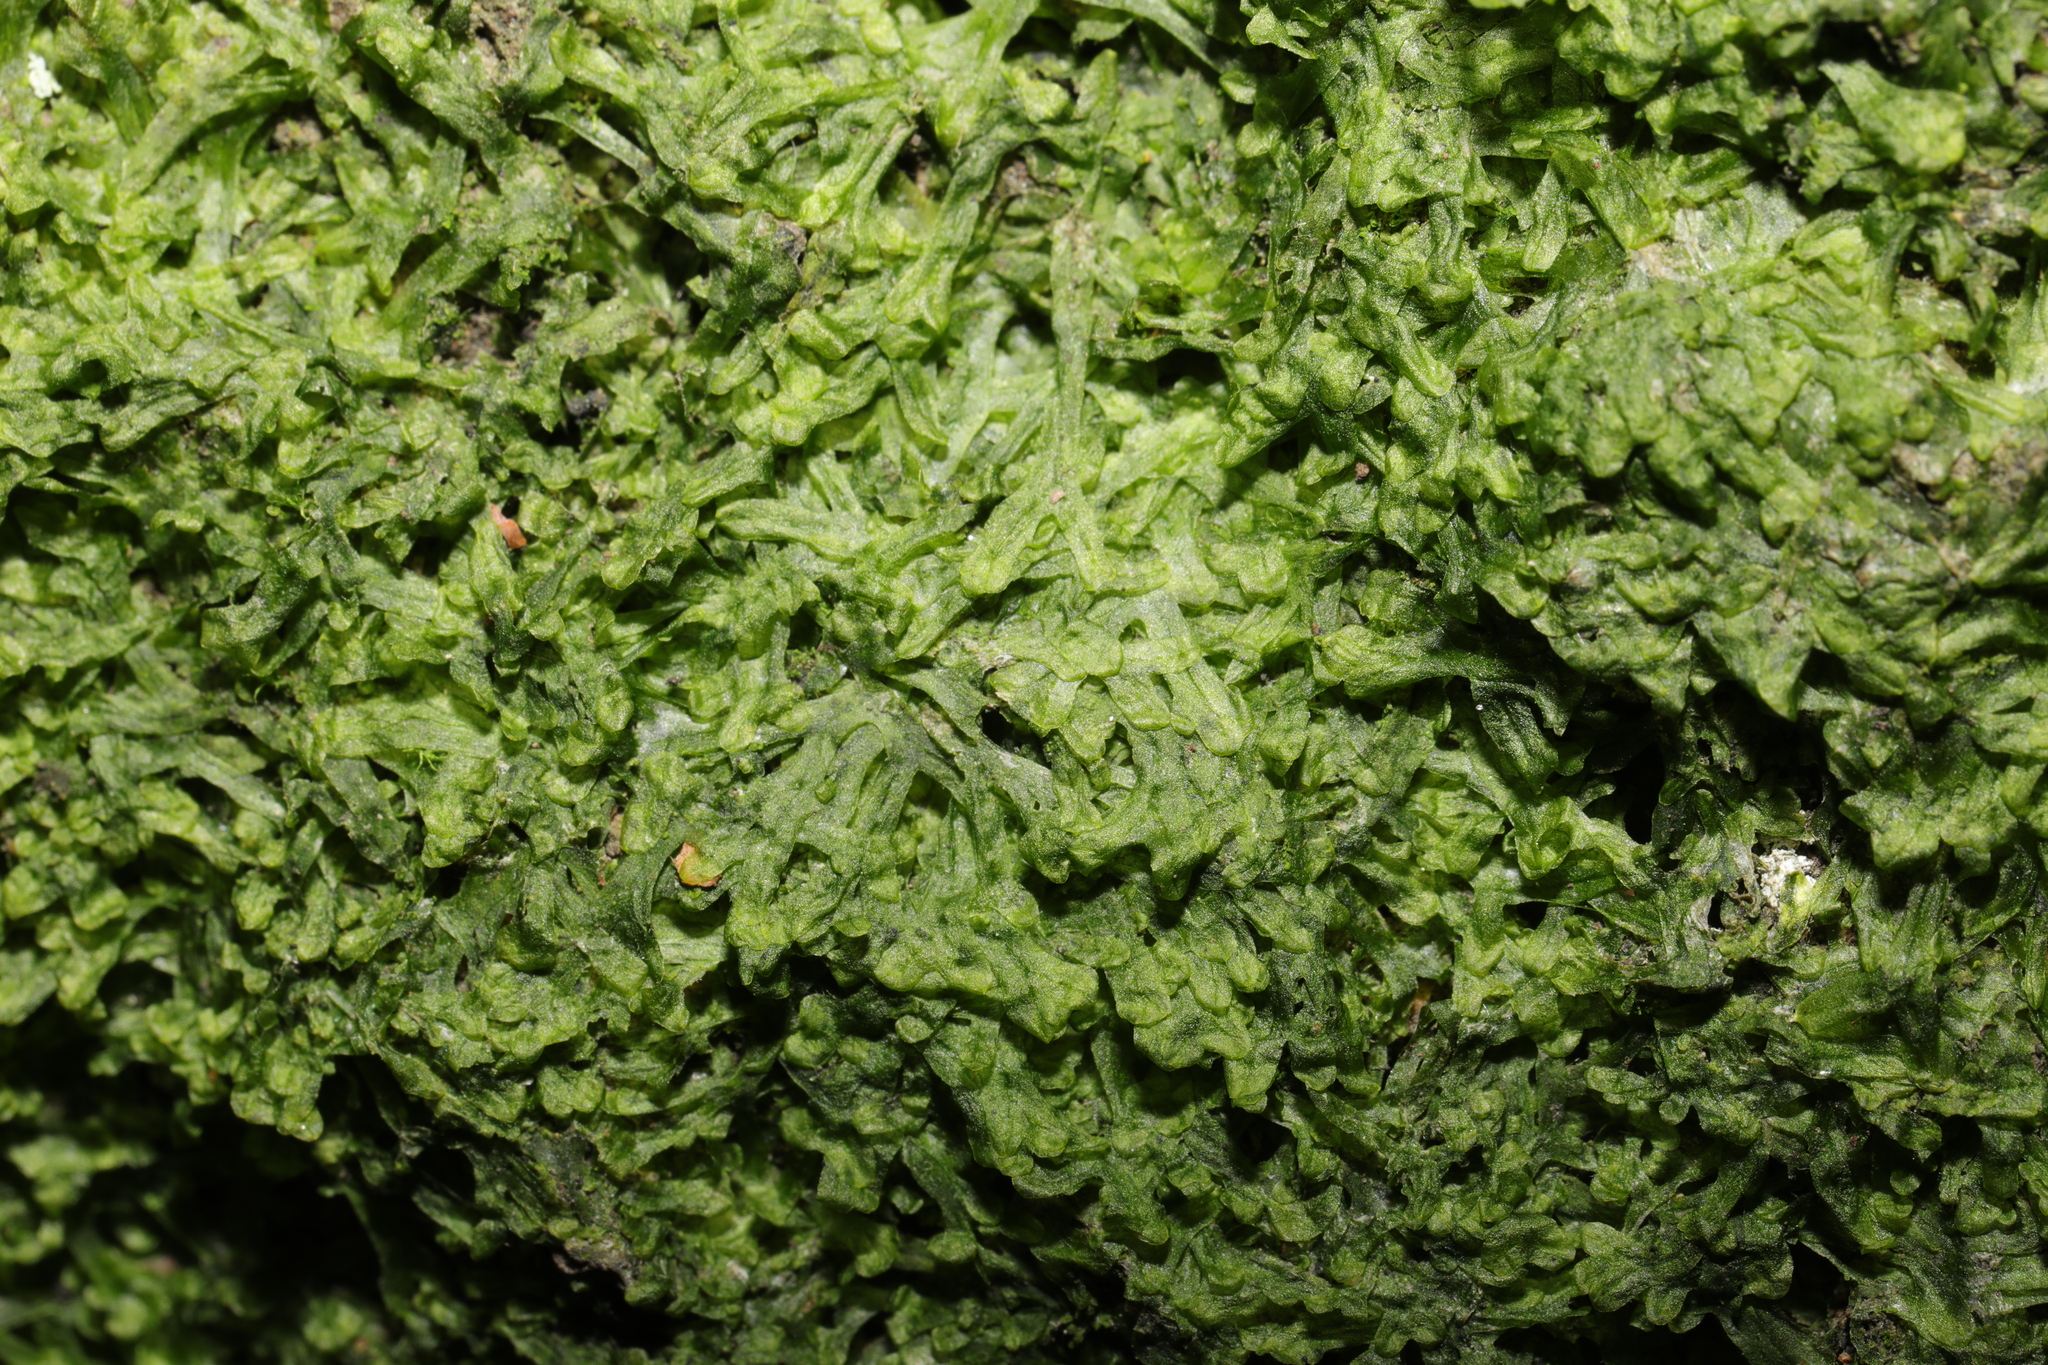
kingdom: Plantae
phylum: Marchantiophyta
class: Jungermanniopsida
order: Metzgeriales
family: Metzgeriaceae
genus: Metzgeria
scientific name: Metzgeria furcata
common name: Forked veilwort
